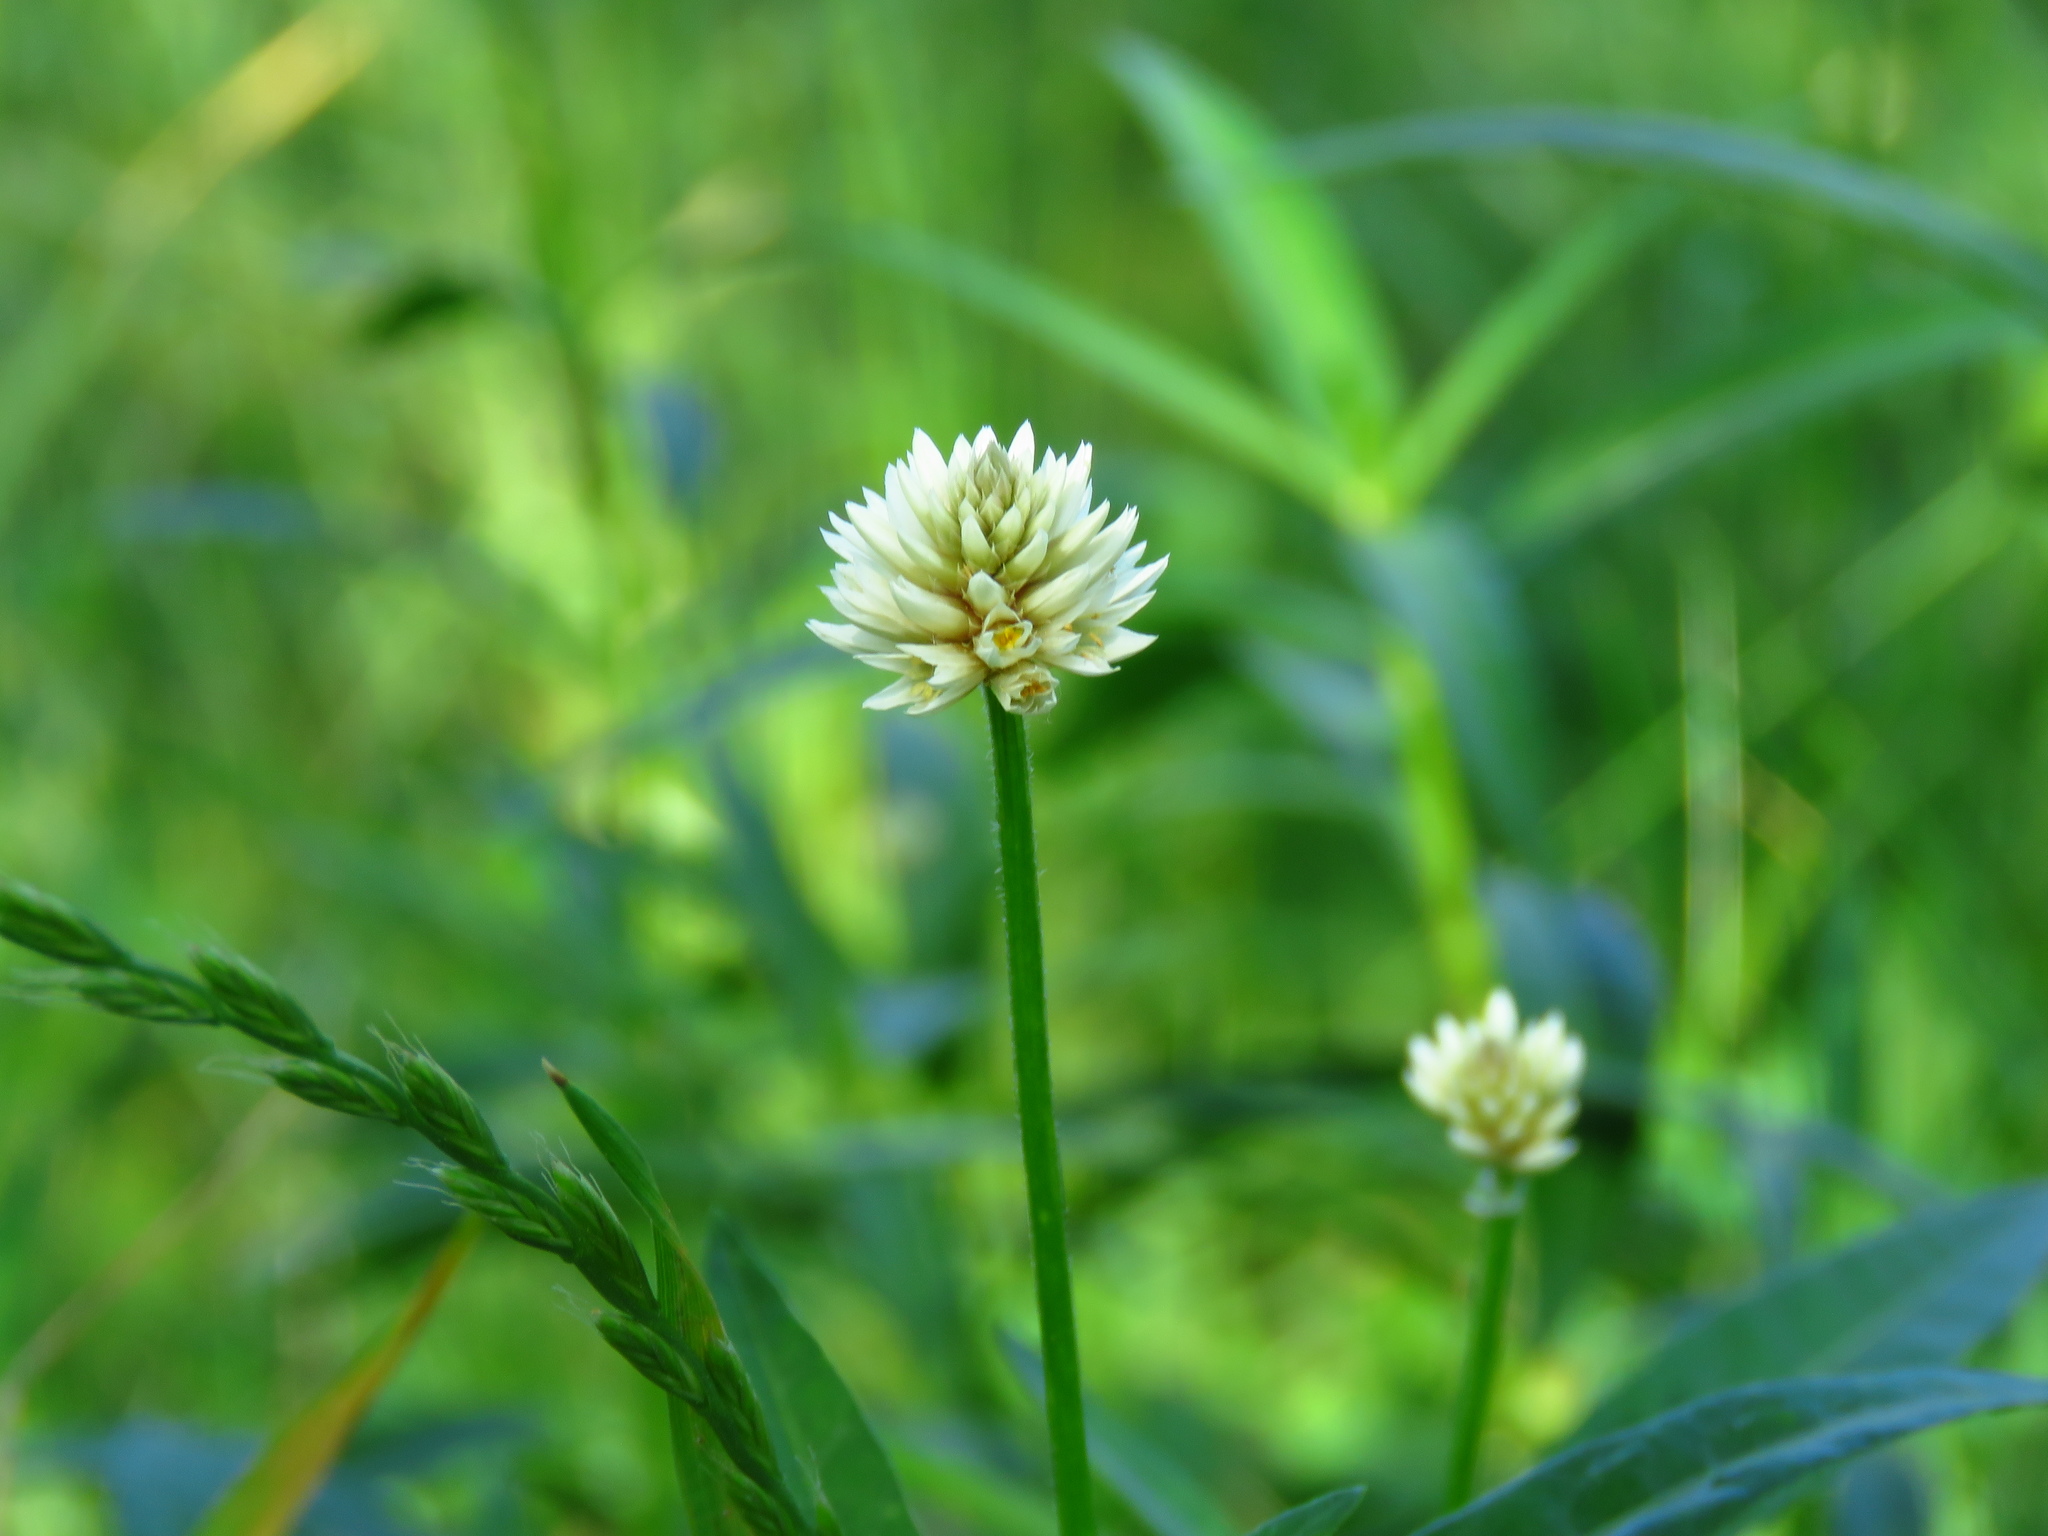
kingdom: Plantae
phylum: Tracheophyta
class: Magnoliopsida
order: Caryophyllales
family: Amaranthaceae
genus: Alternanthera
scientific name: Alternanthera philoxeroides
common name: Alligatorweed
